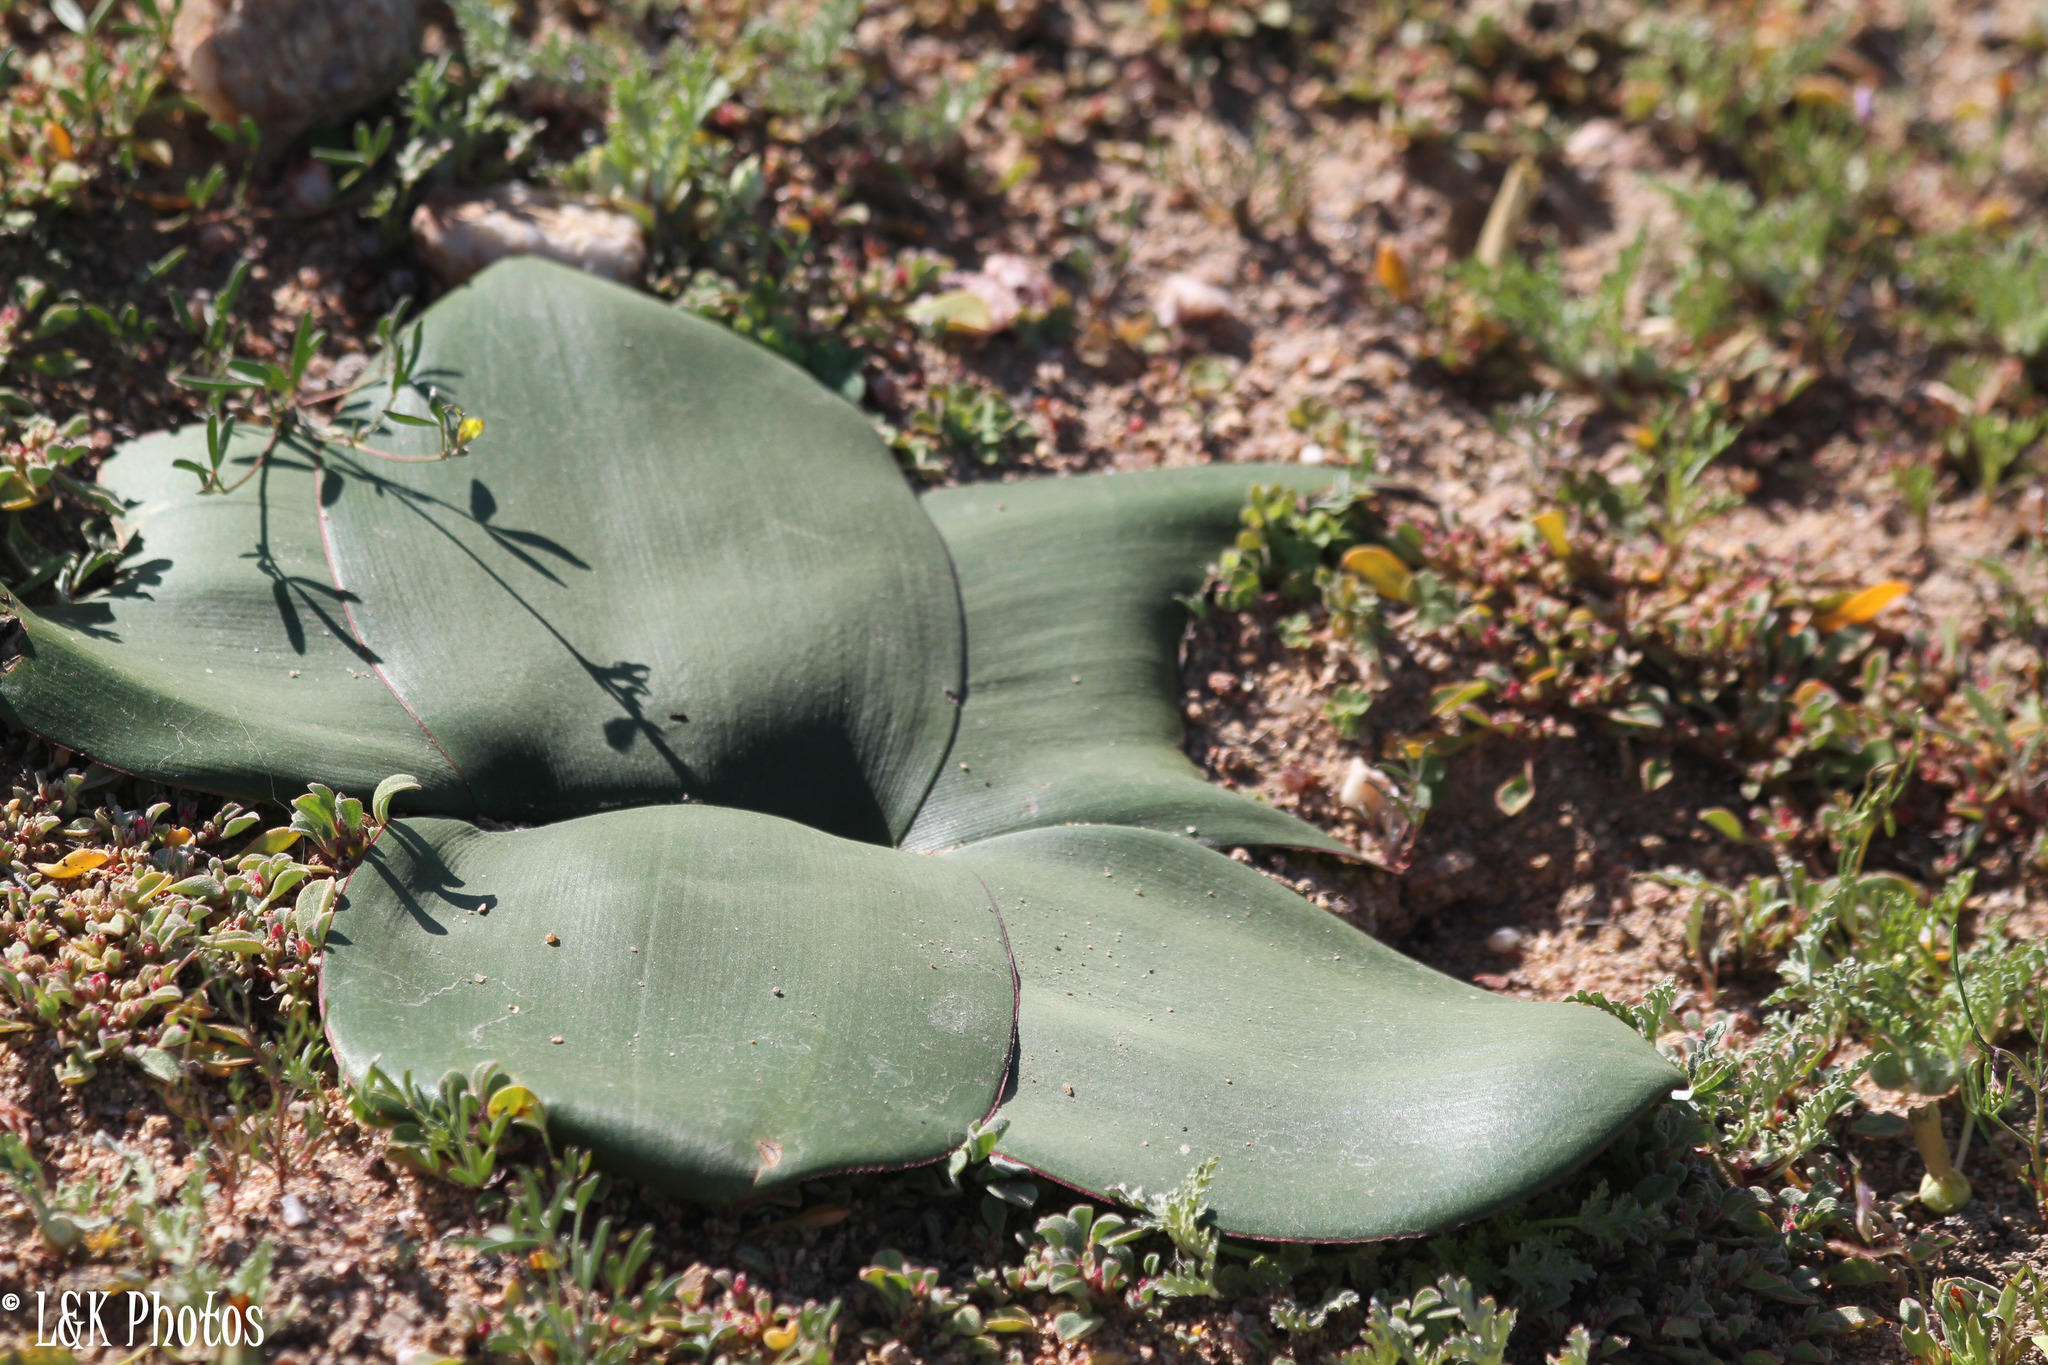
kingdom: Plantae
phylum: Tracheophyta
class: Liliopsida
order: Asparagales
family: Amaryllidaceae
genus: Brunsvigia
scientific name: Brunsvigia bosmaniae
